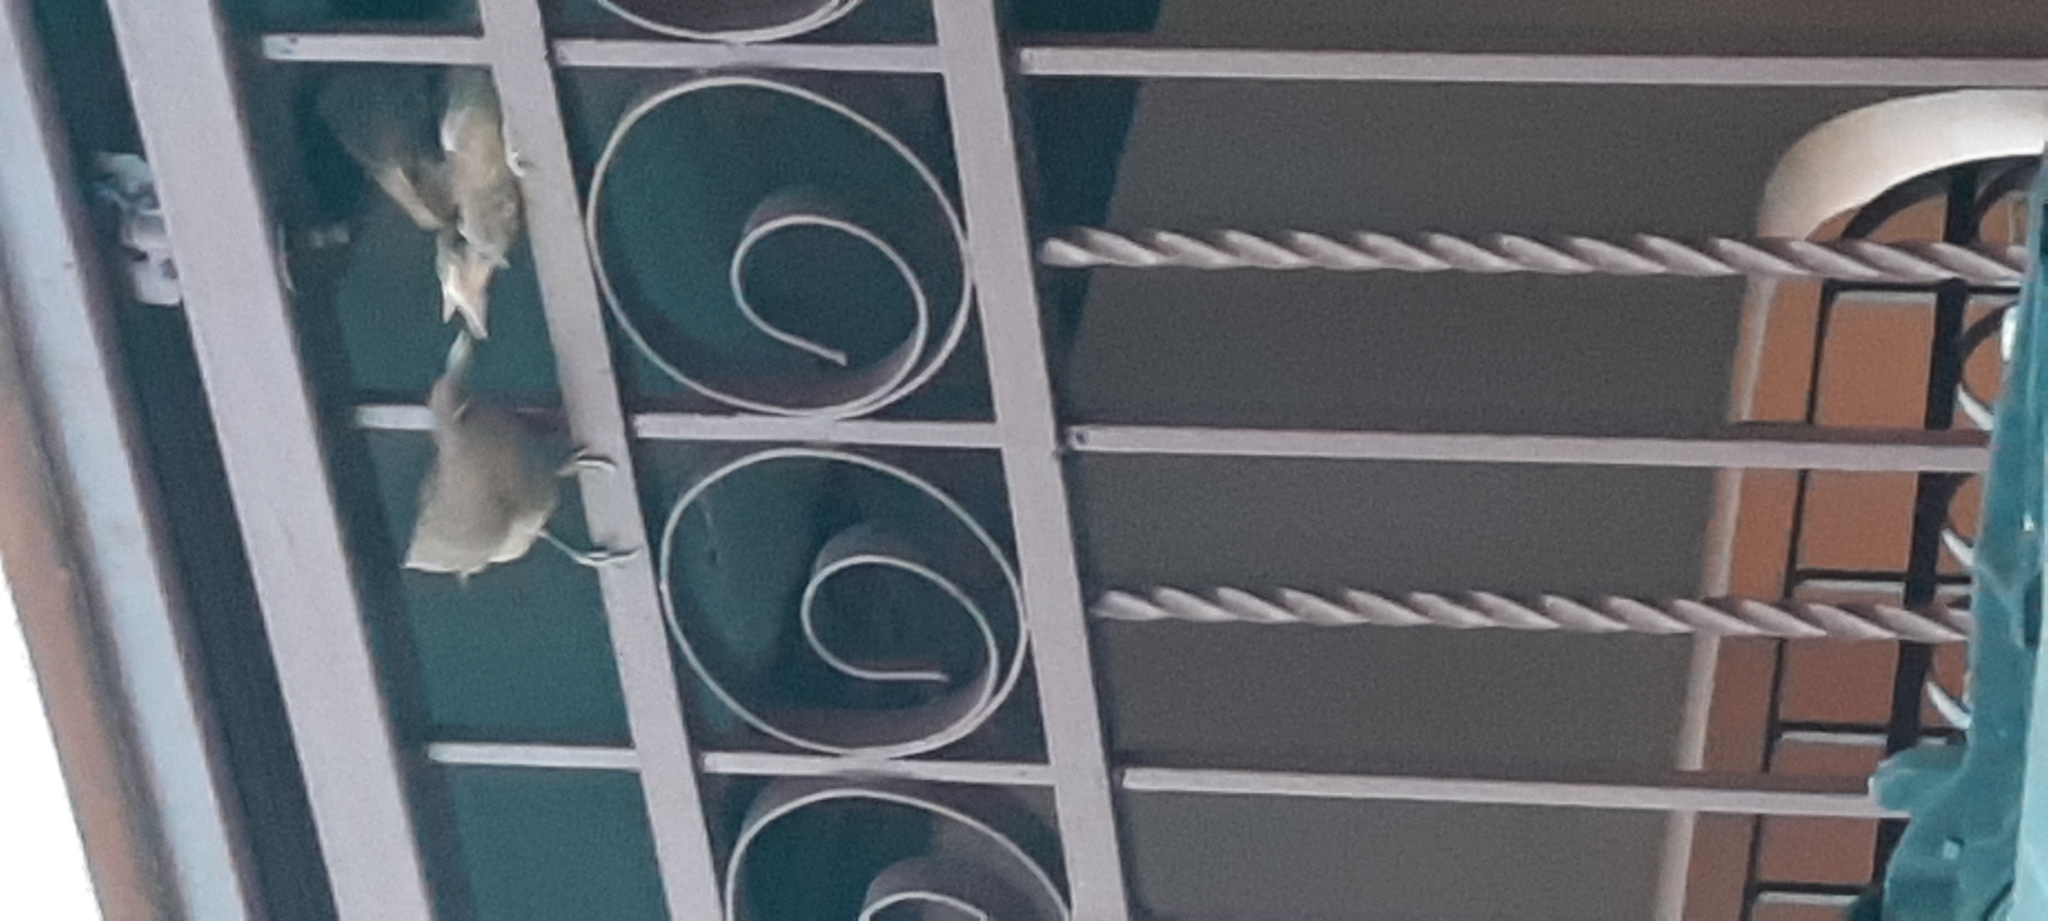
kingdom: Animalia
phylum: Chordata
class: Aves
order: Passeriformes
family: Turdidae
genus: Turdus
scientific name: Turdus grayi
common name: Clay-colored thrush
